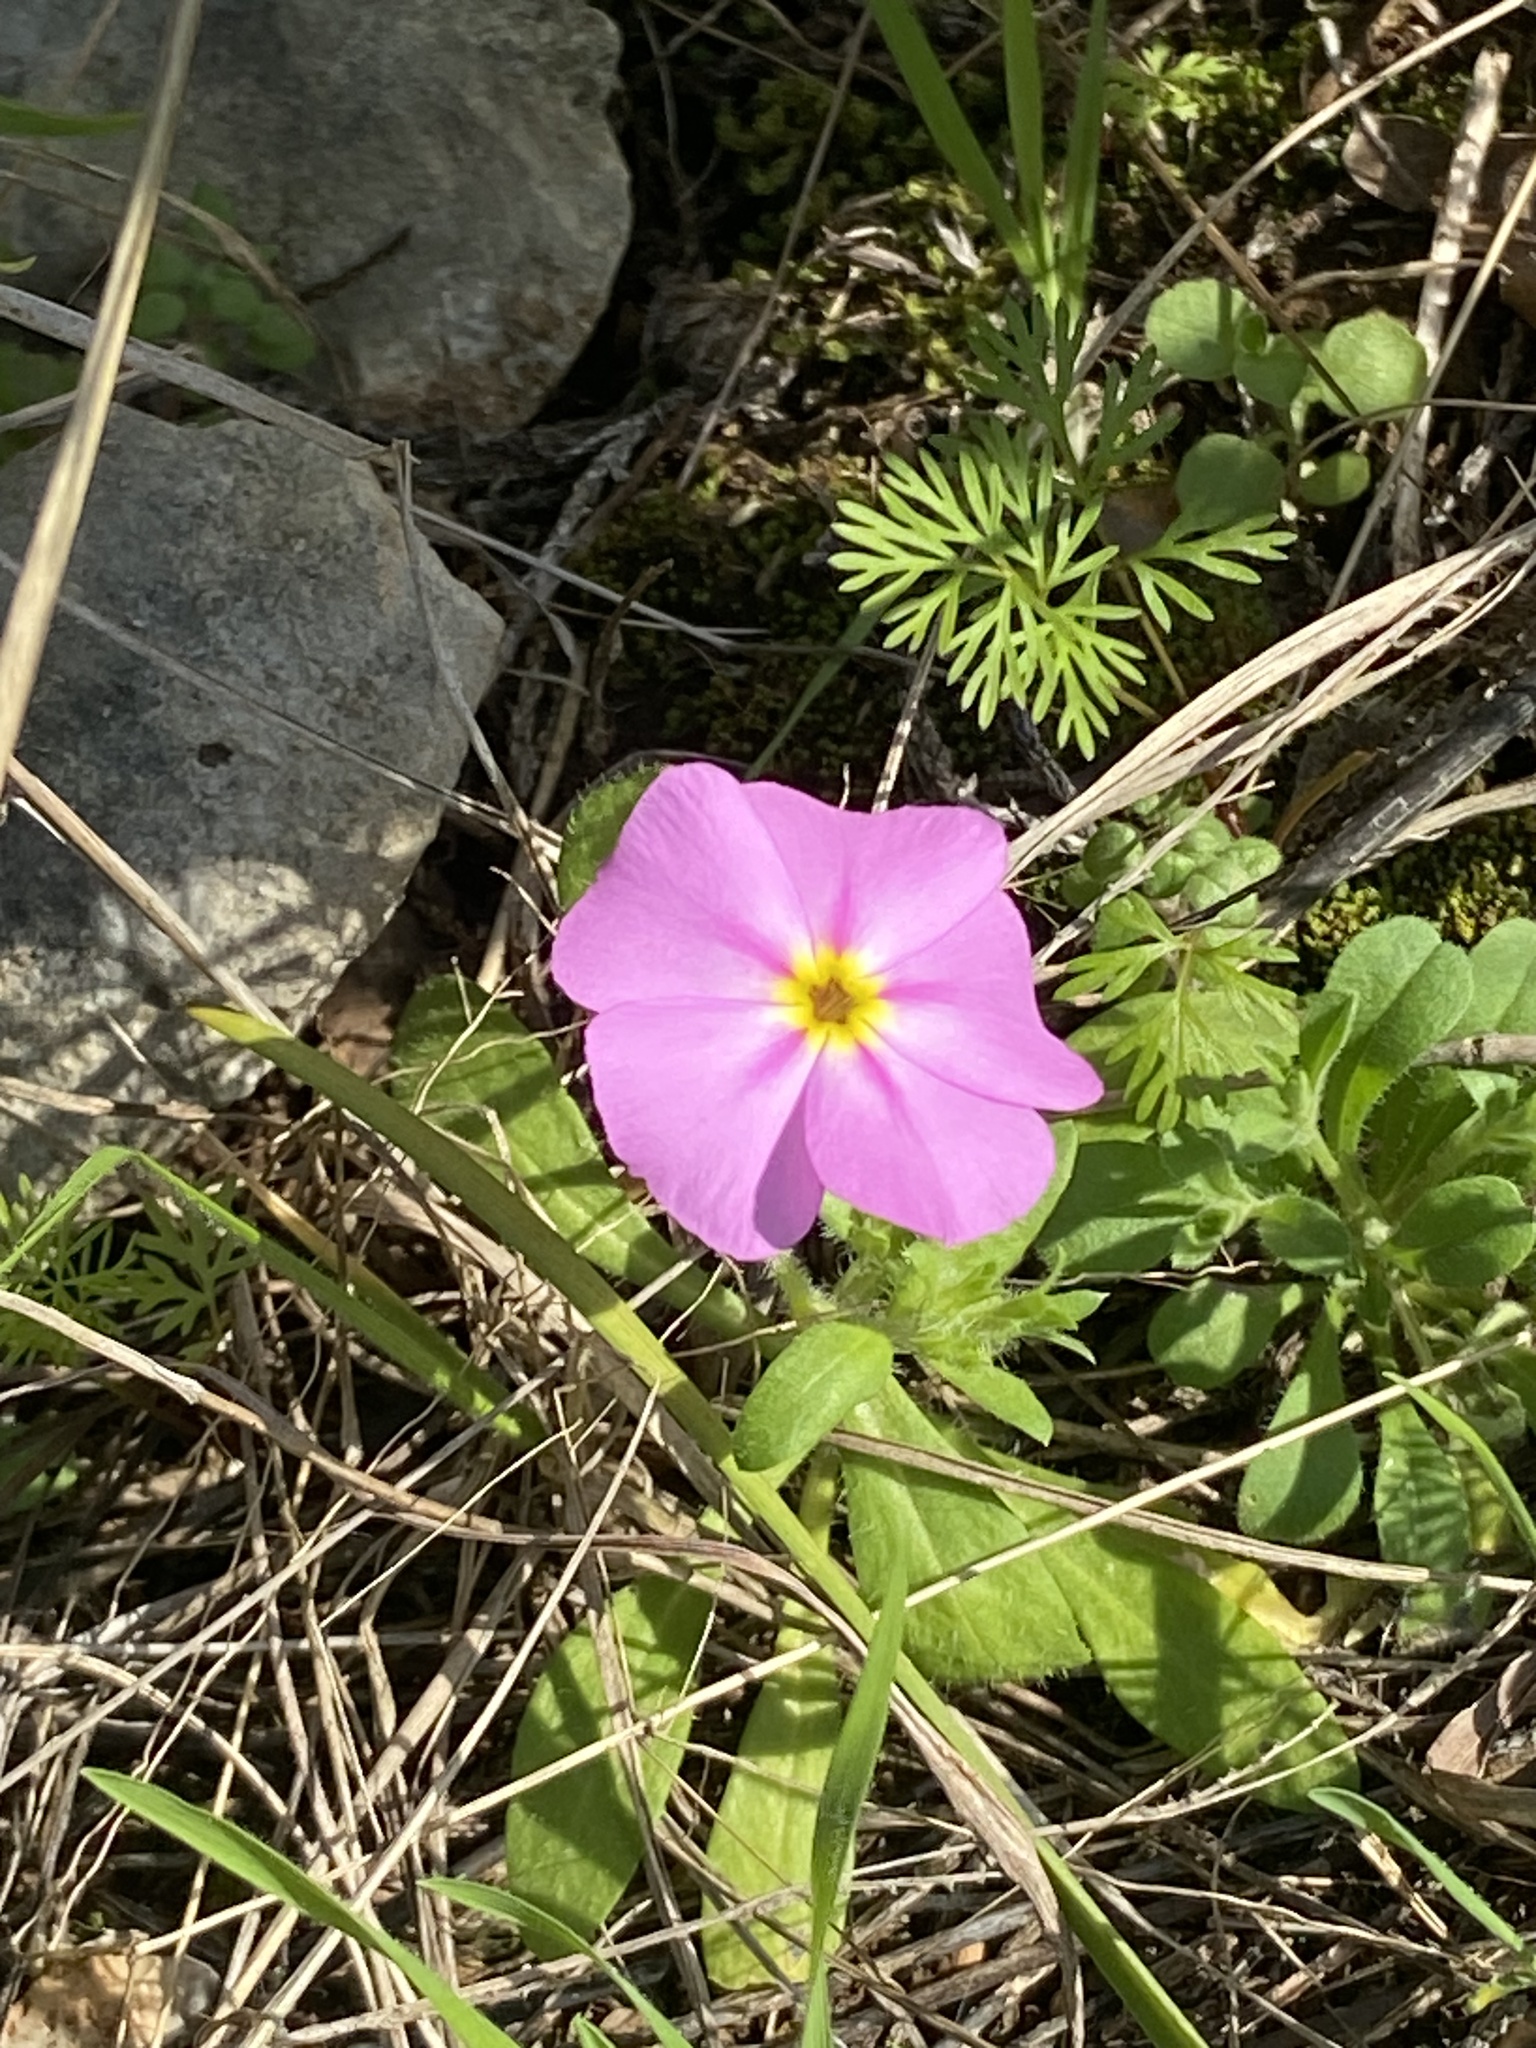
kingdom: Plantae
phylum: Tracheophyta
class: Magnoliopsida
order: Ericales
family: Polemoniaceae
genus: Phlox
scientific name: Phlox roemeriana
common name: Roemer's phlox
